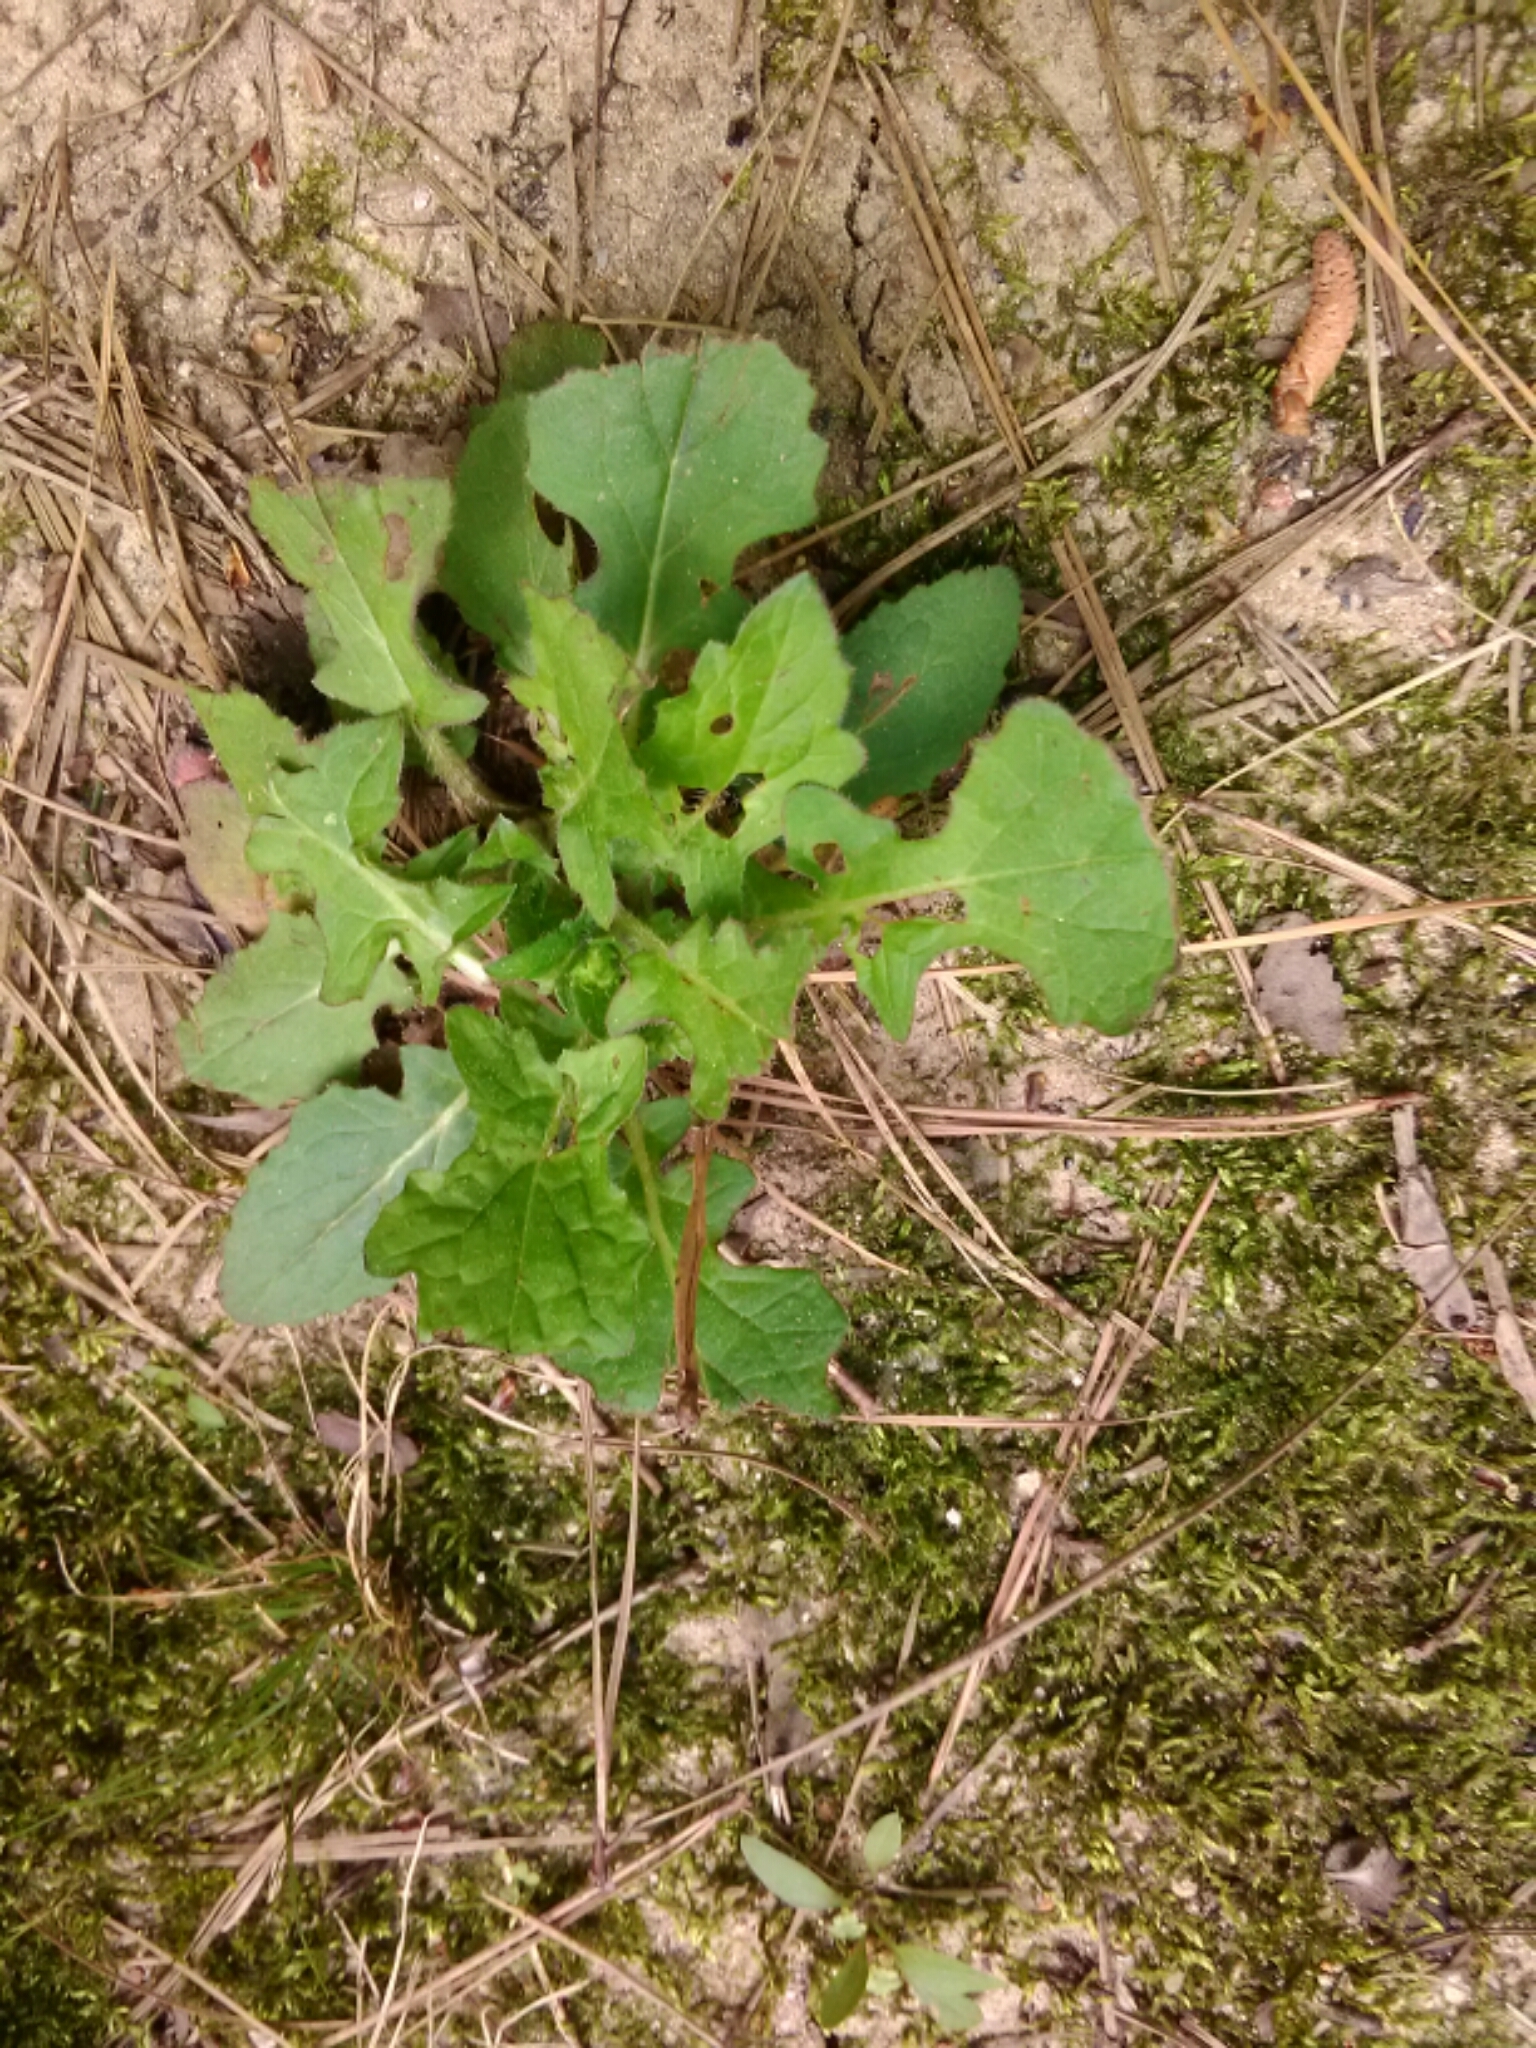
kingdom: Plantae
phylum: Tracheophyta
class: Magnoliopsida
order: Lamiales
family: Lamiaceae
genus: Salvia
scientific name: Salvia lyrata
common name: Cancerweed
